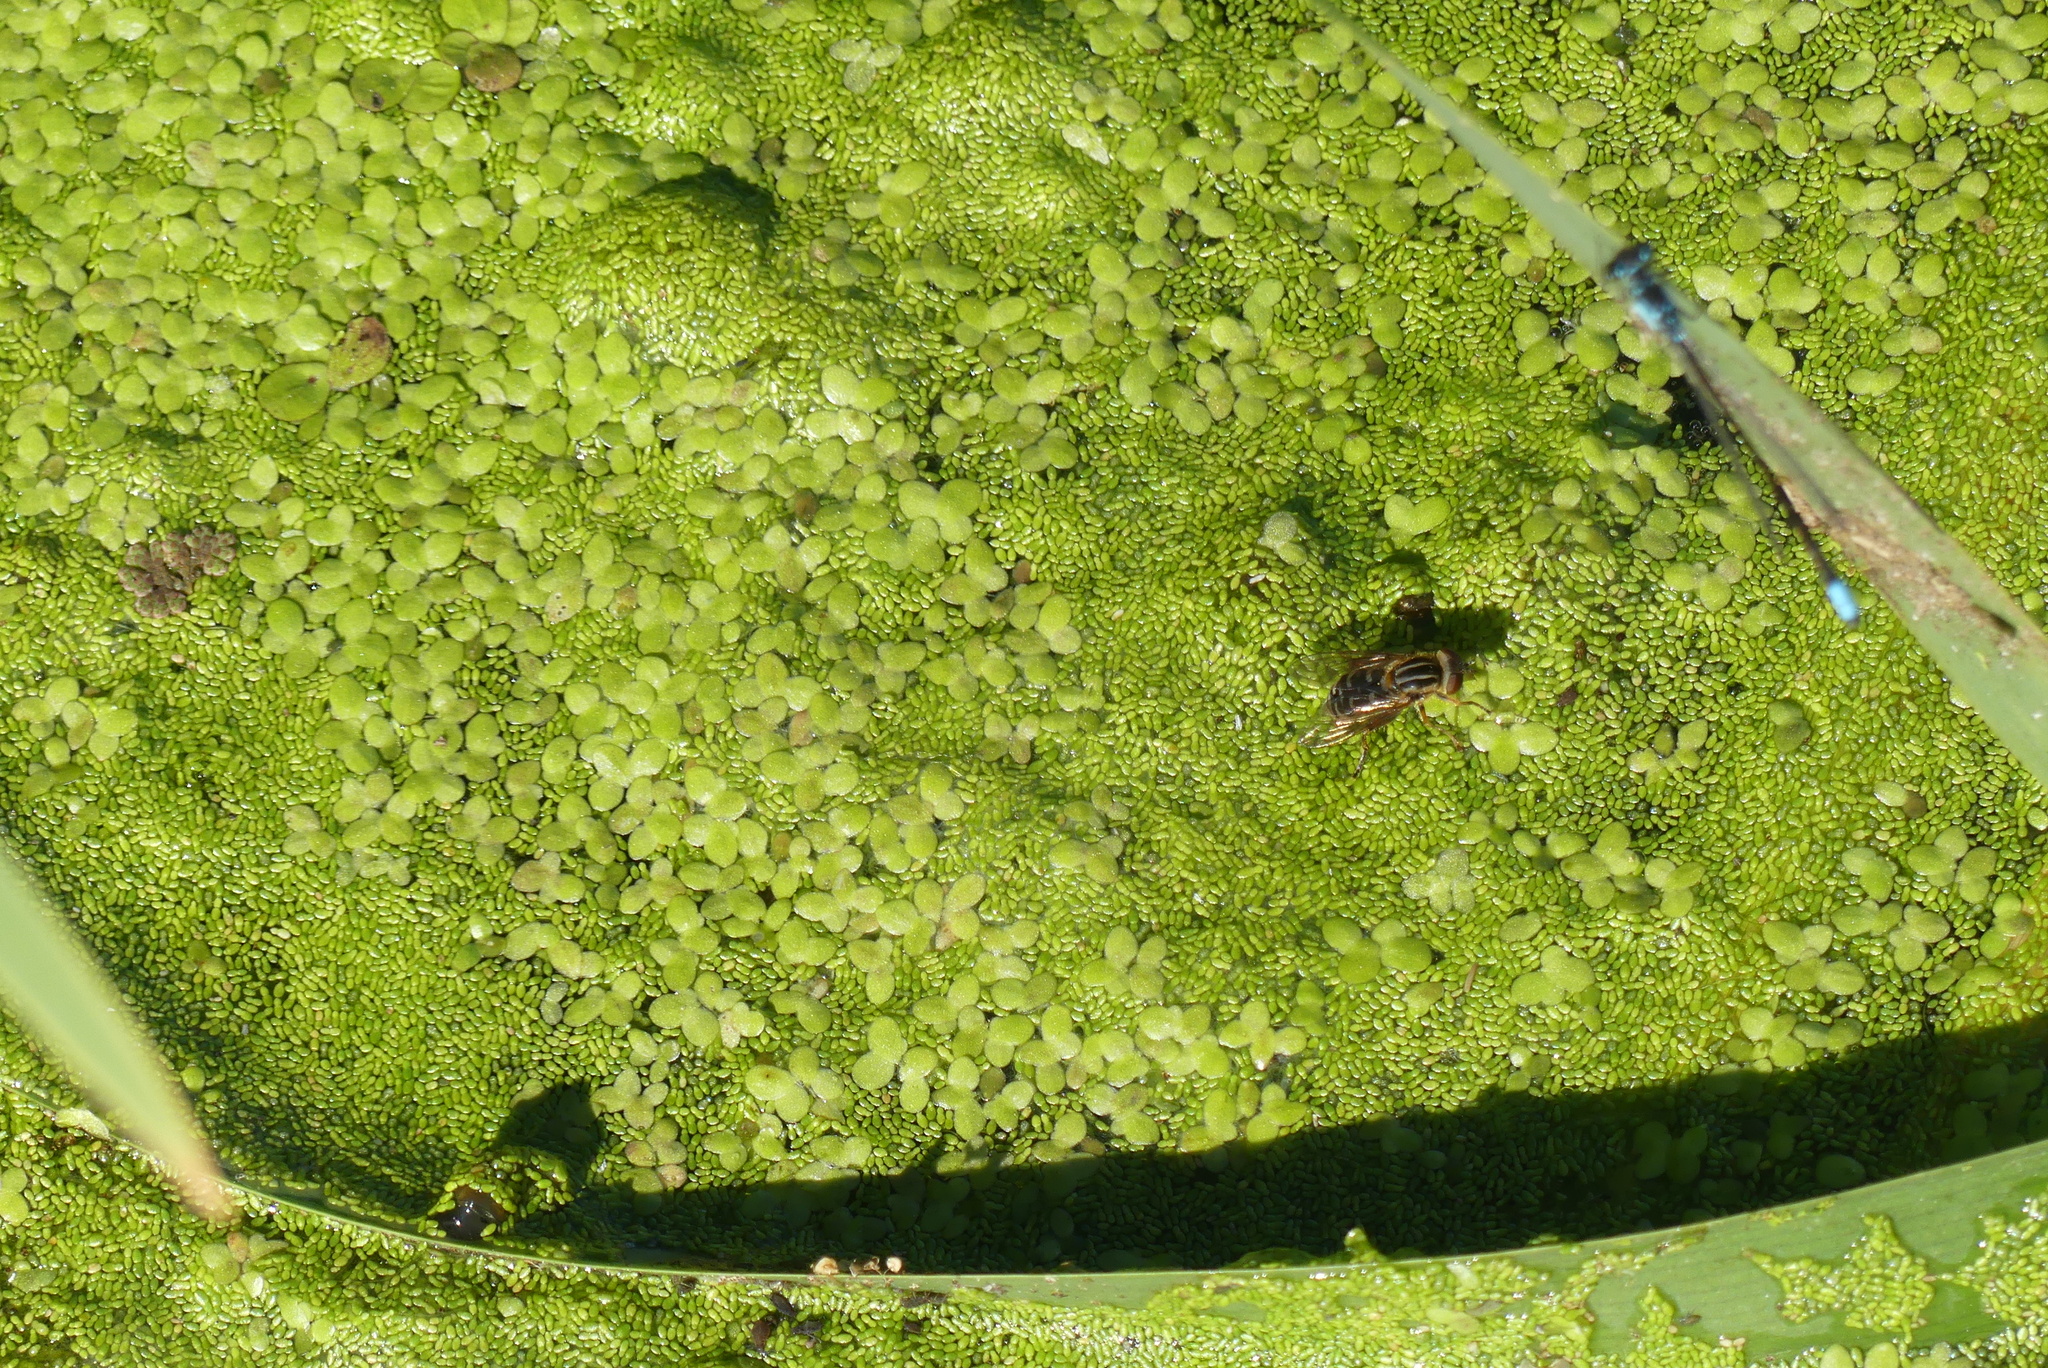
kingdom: Animalia
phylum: Arthropoda
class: Insecta
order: Diptera
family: Syrphidae
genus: Eurimyia
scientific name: Eurimyia stipatus
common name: Long-nosed swamp fly
